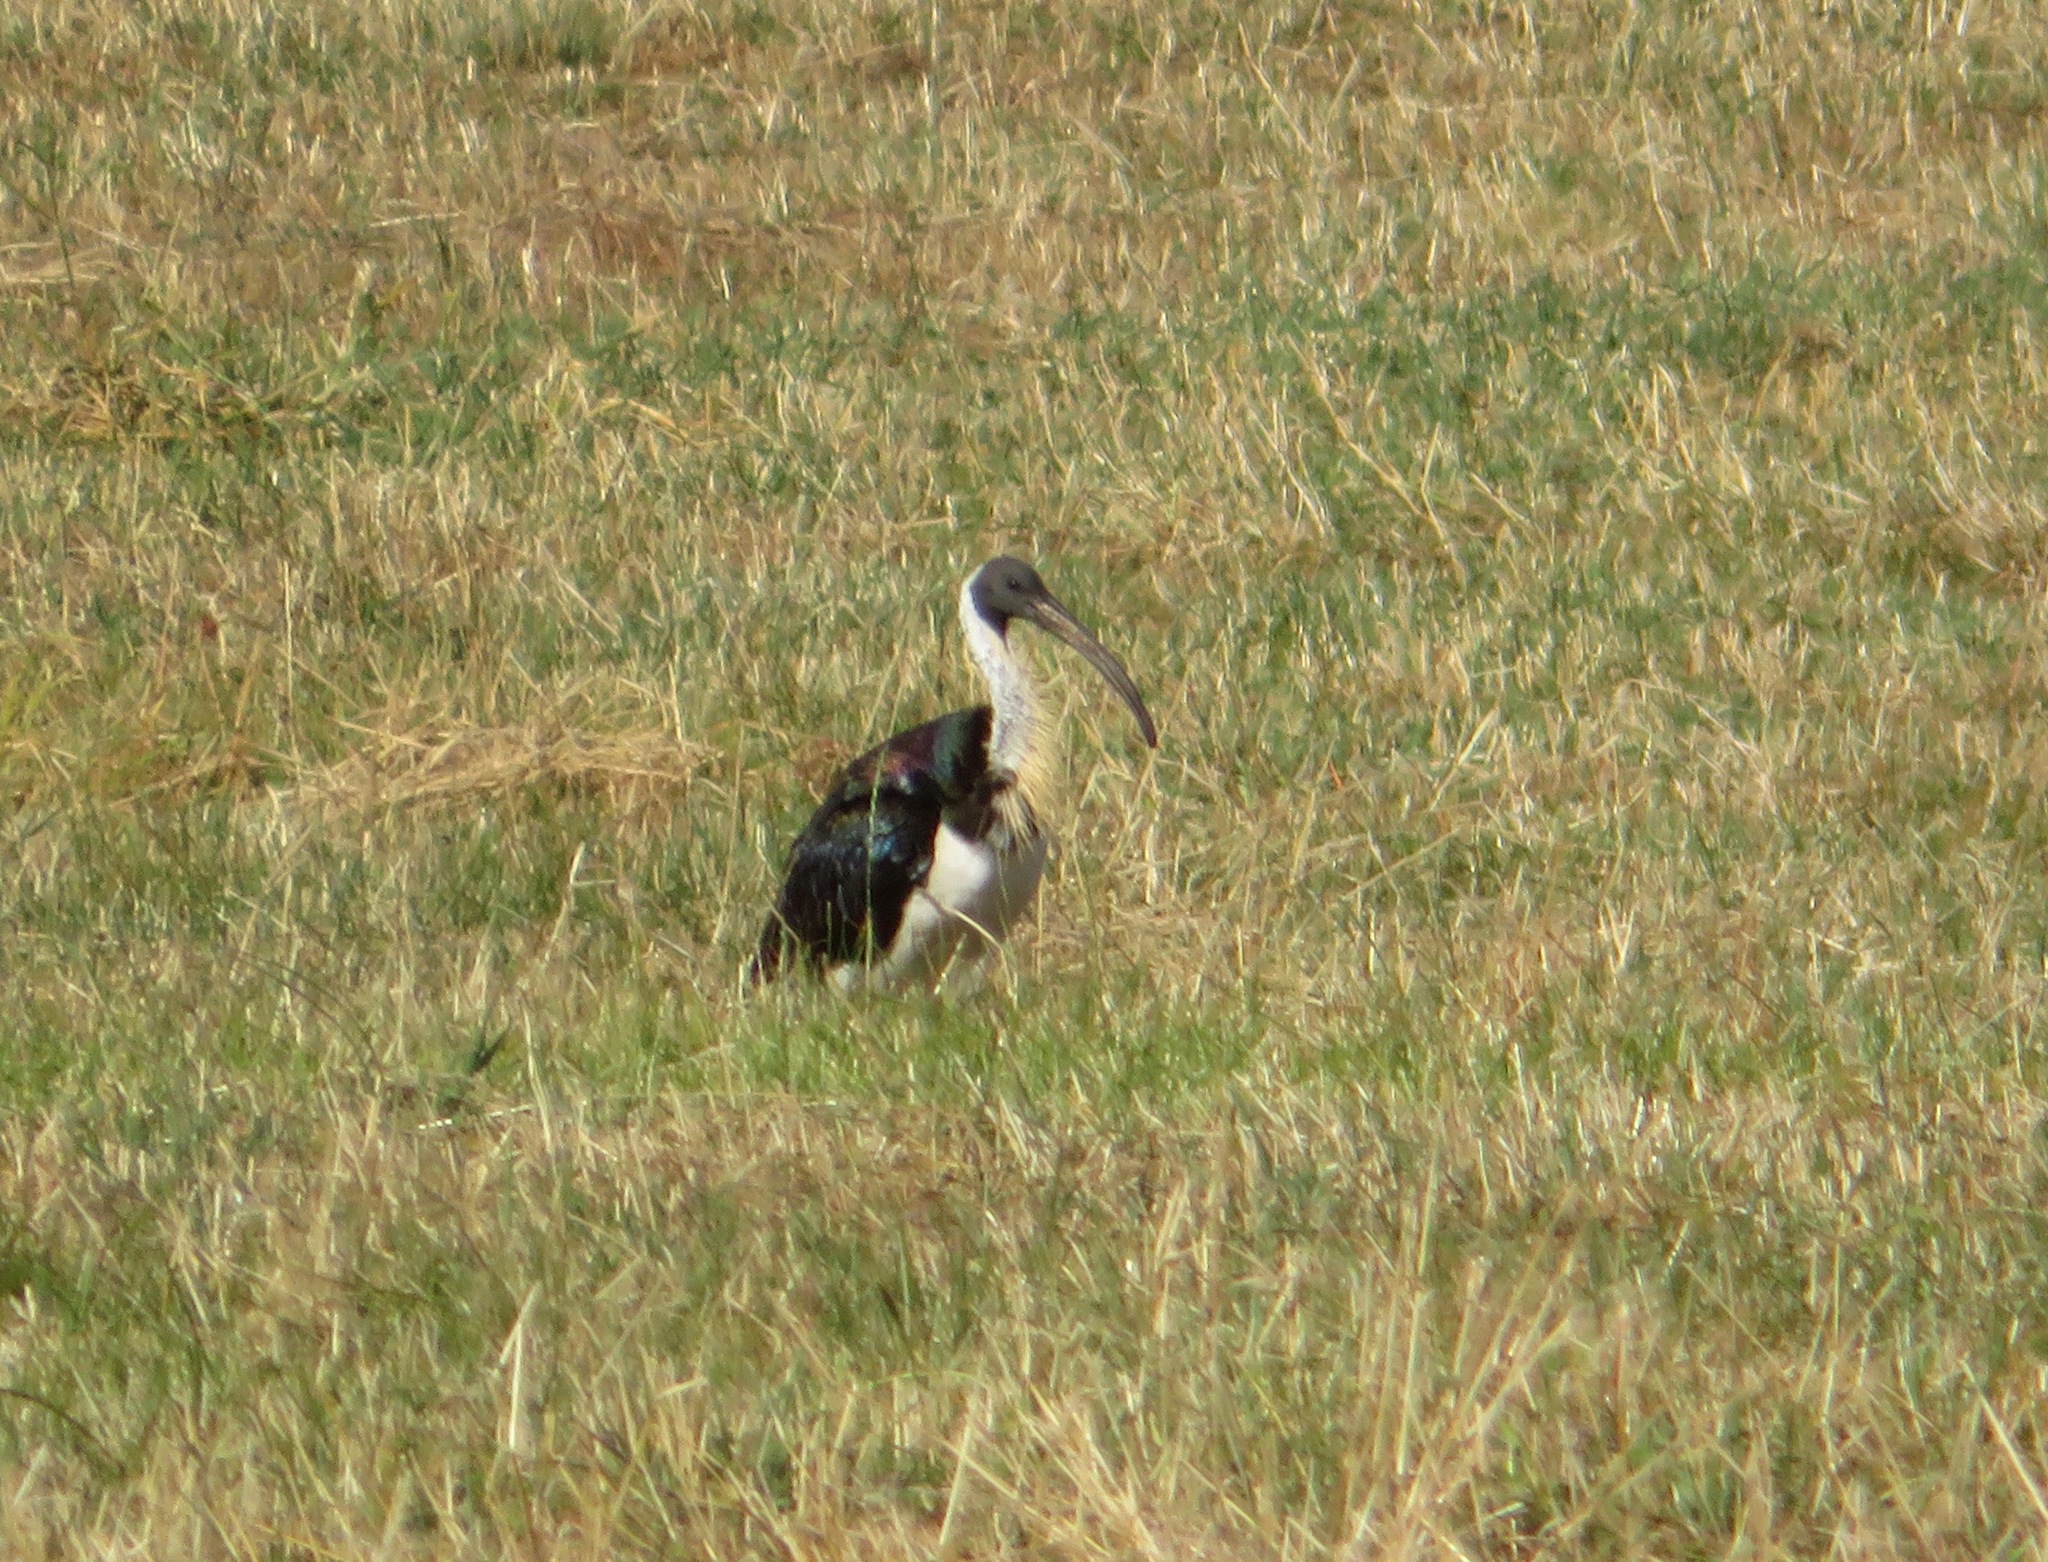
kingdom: Animalia
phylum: Chordata
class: Aves
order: Pelecaniformes
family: Threskiornithidae
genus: Threskiornis
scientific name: Threskiornis spinicollis
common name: Straw-necked ibis
